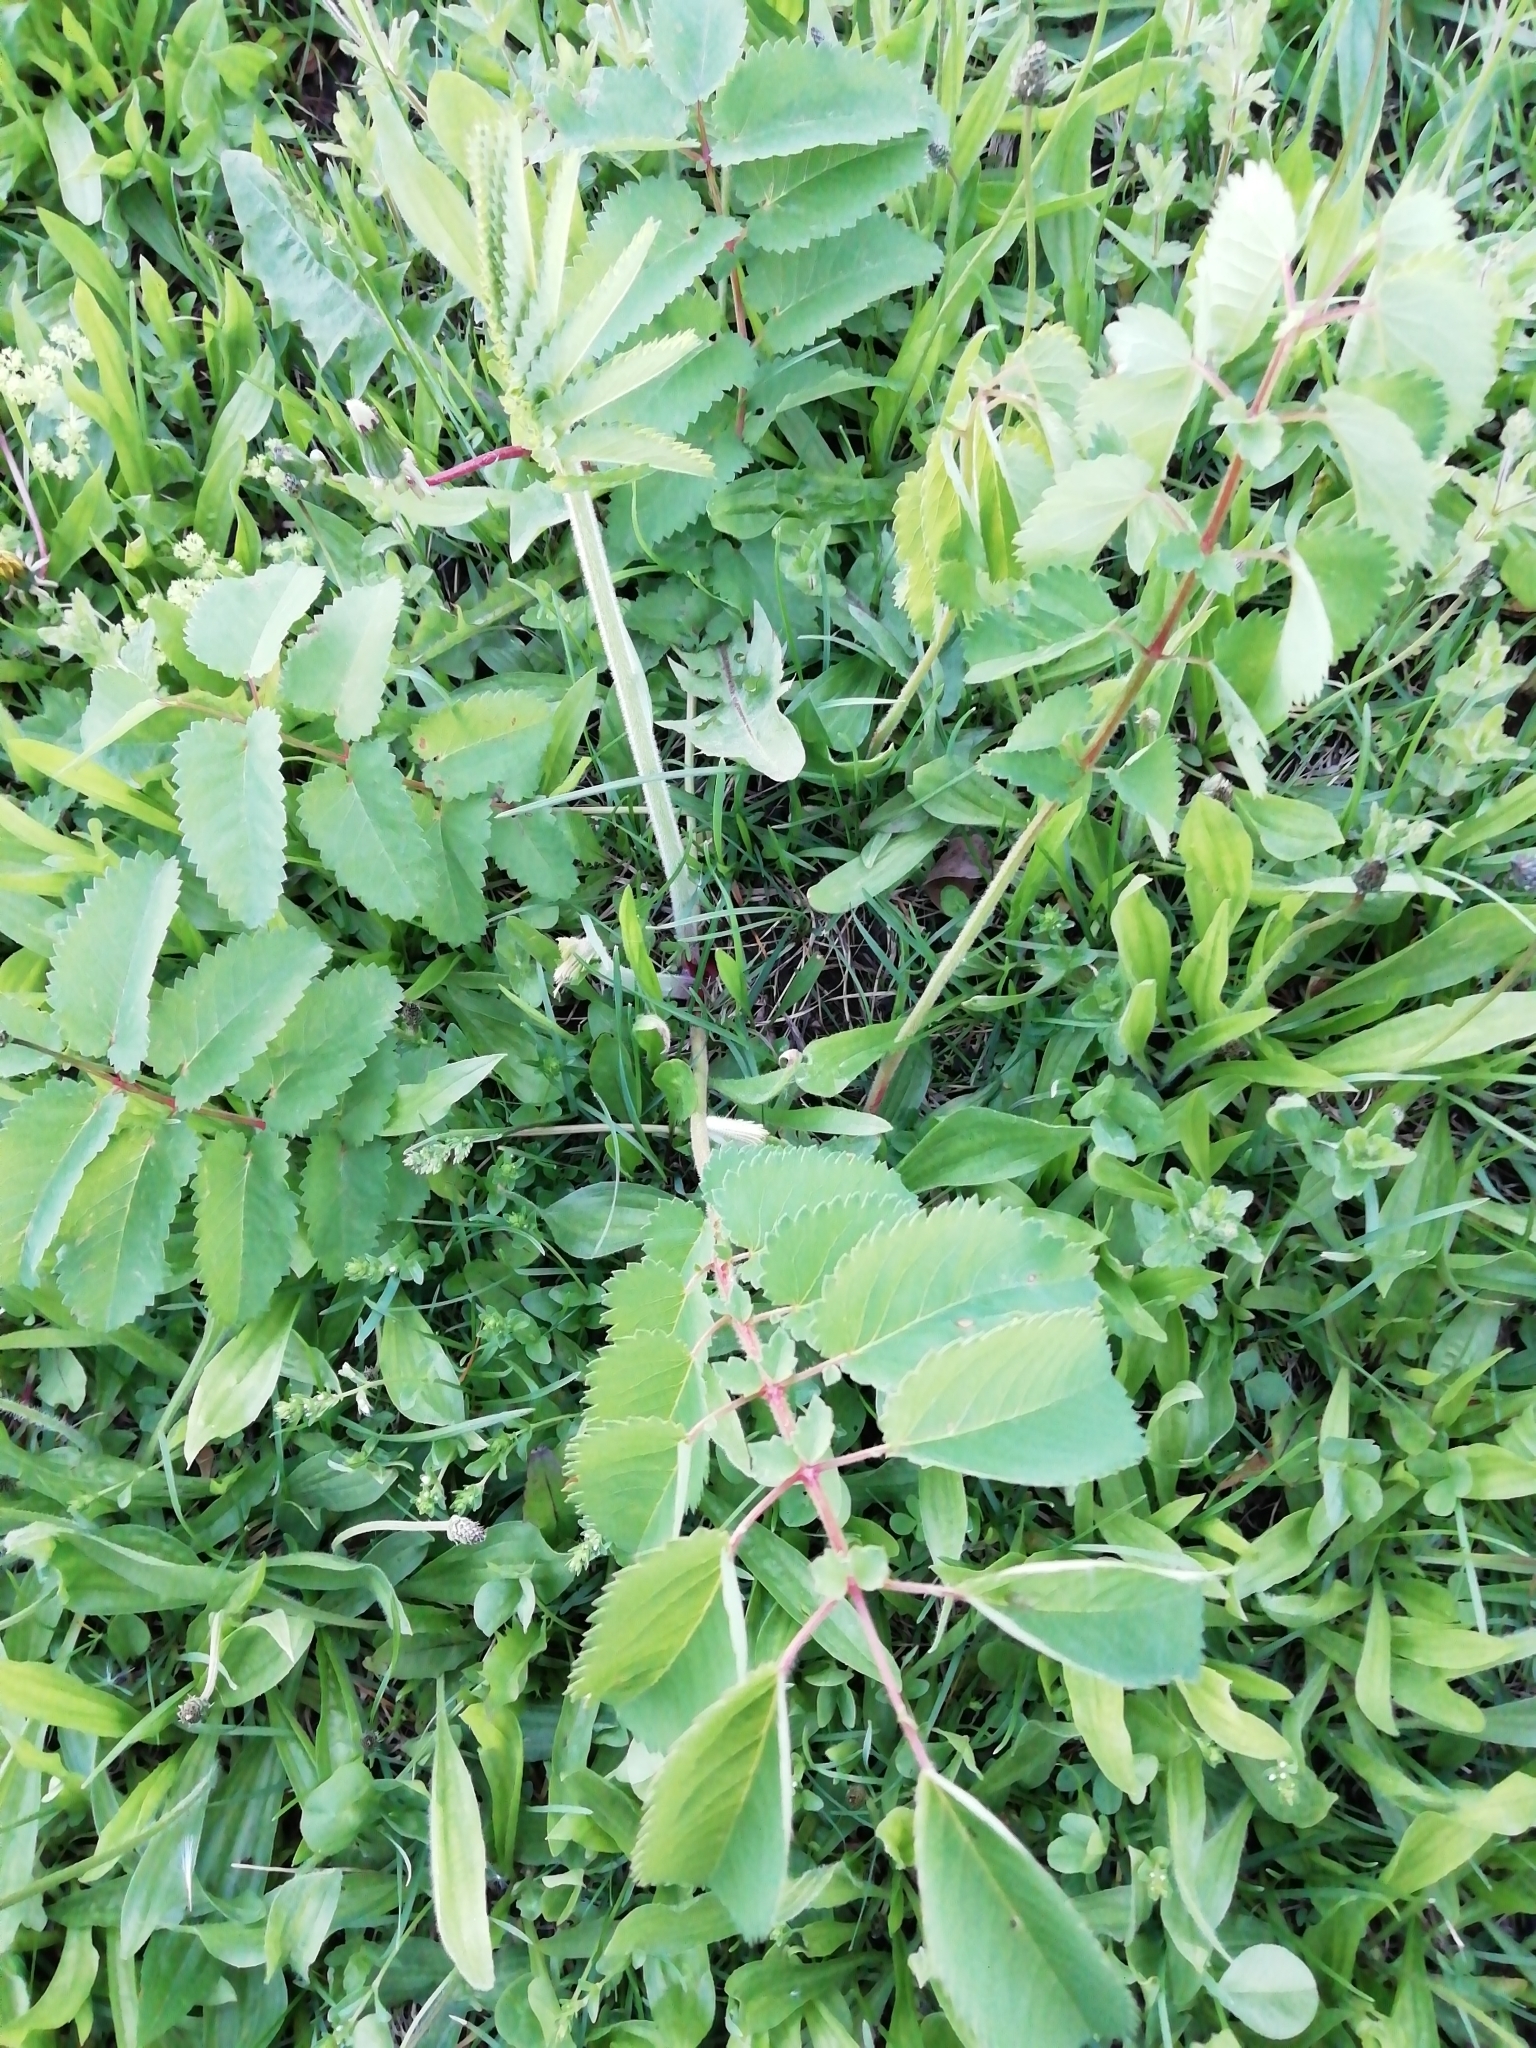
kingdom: Plantae
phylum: Tracheophyta
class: Magnoliopsida
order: Rosales
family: Rosaceae
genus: Sanguisorba
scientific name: Sanguisorba officinalis
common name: Great burnet
